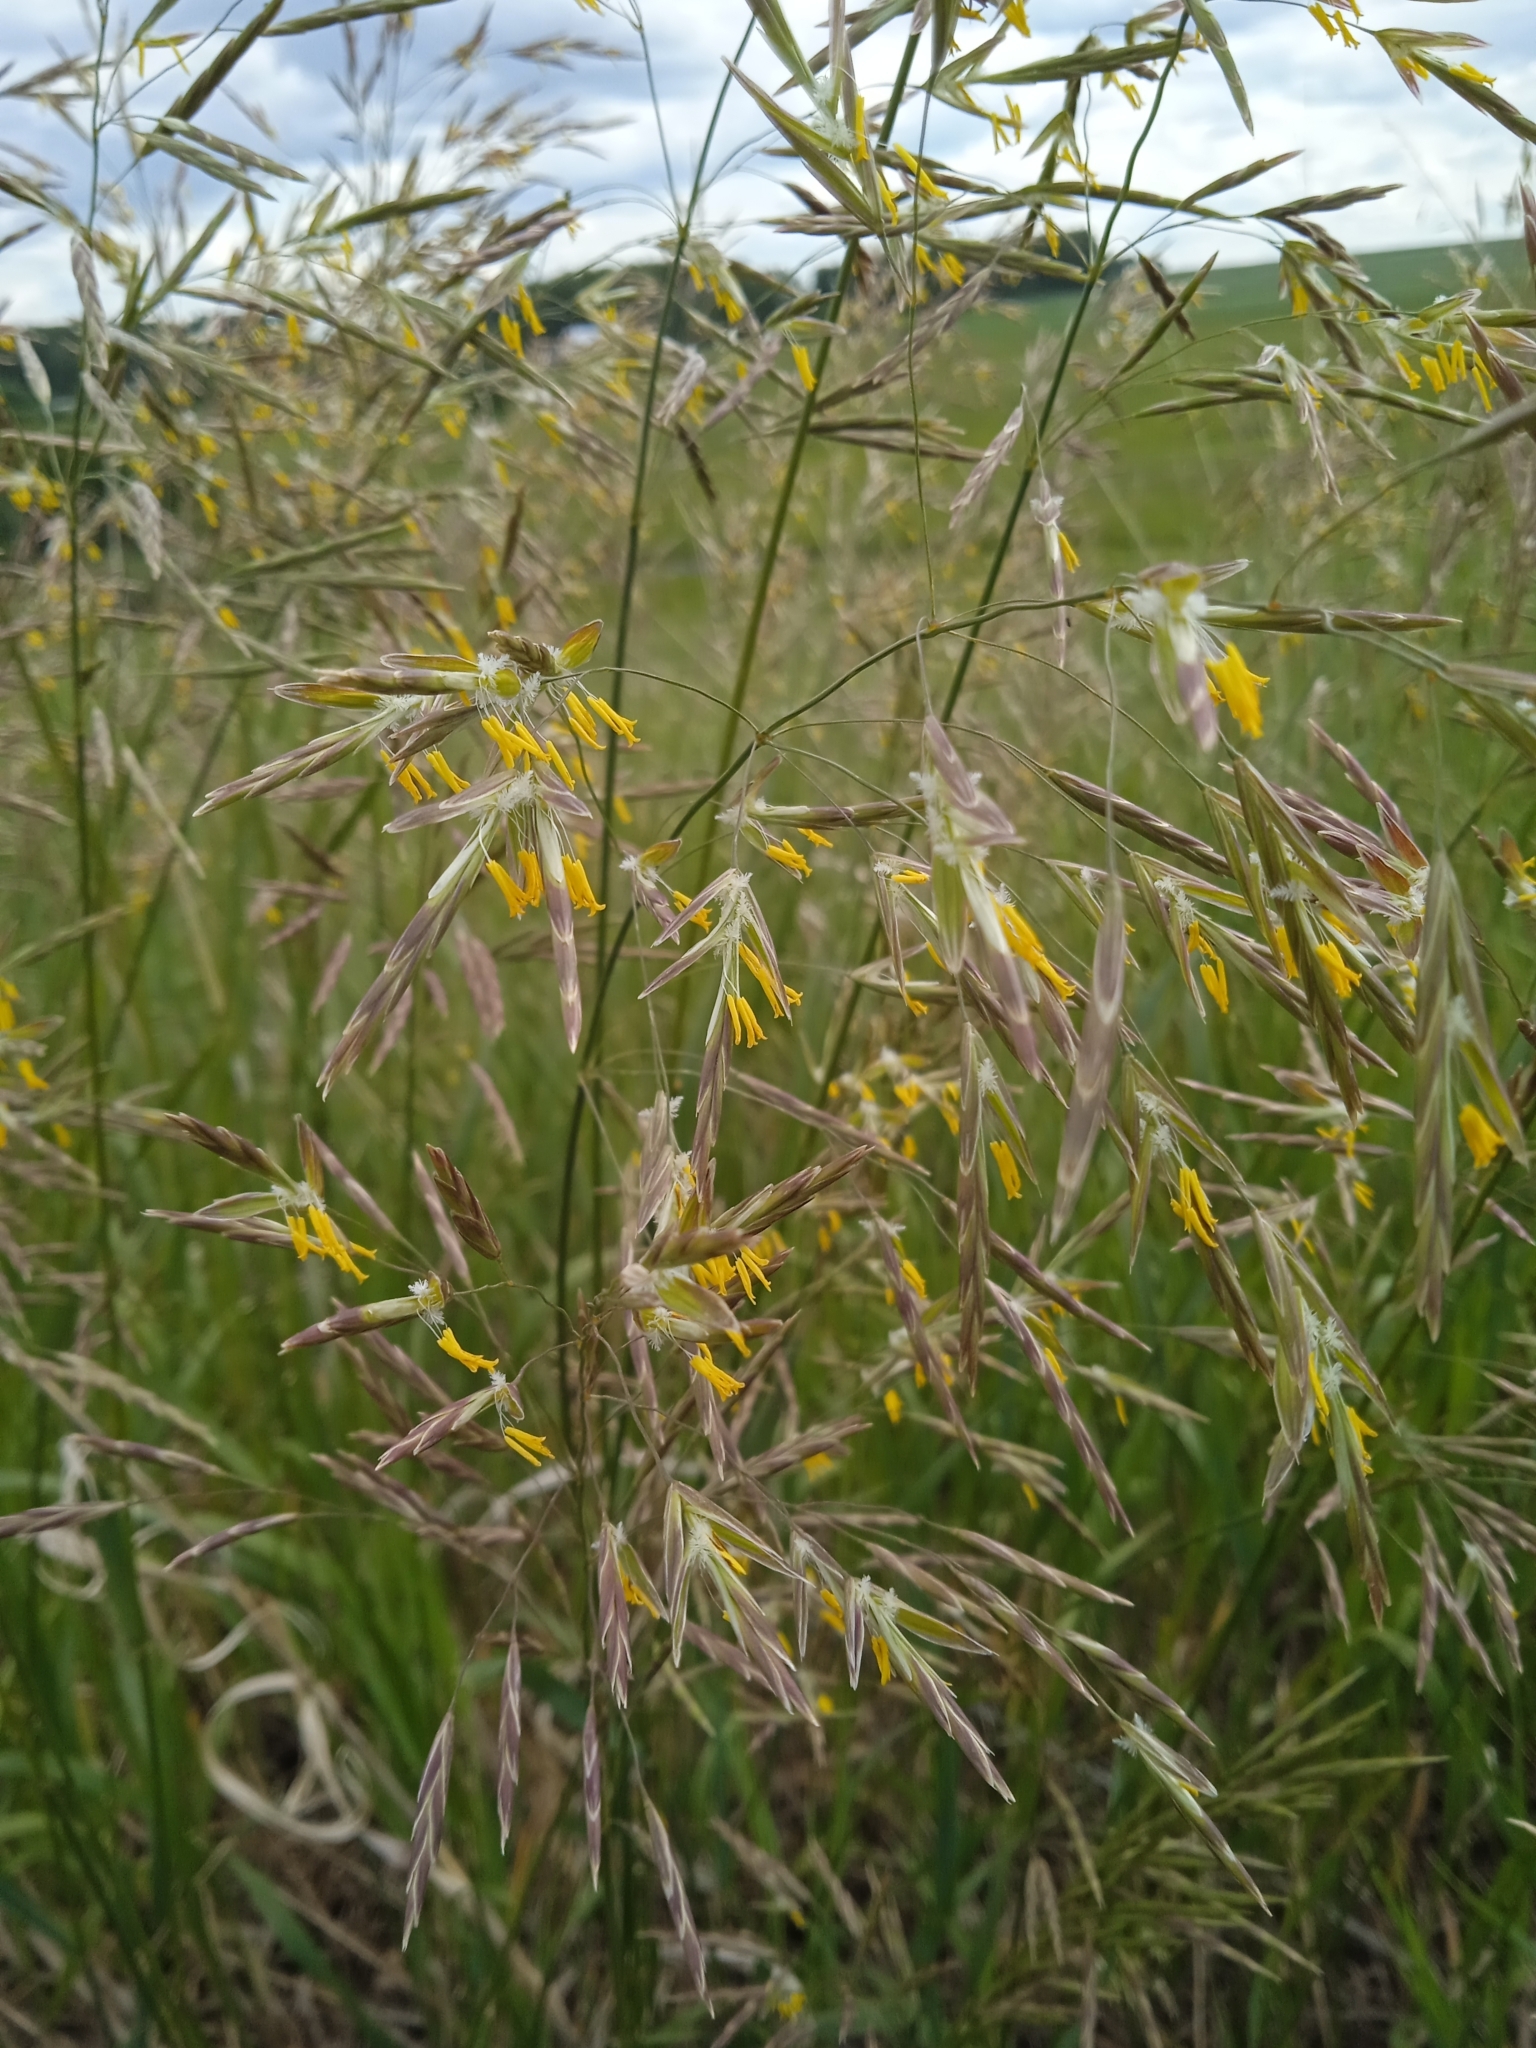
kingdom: Plantae
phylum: Tracheophyta
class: Liliopsida
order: Poales
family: Poaceae
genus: Bromus
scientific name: Bromus inermis
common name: Smooth brome
